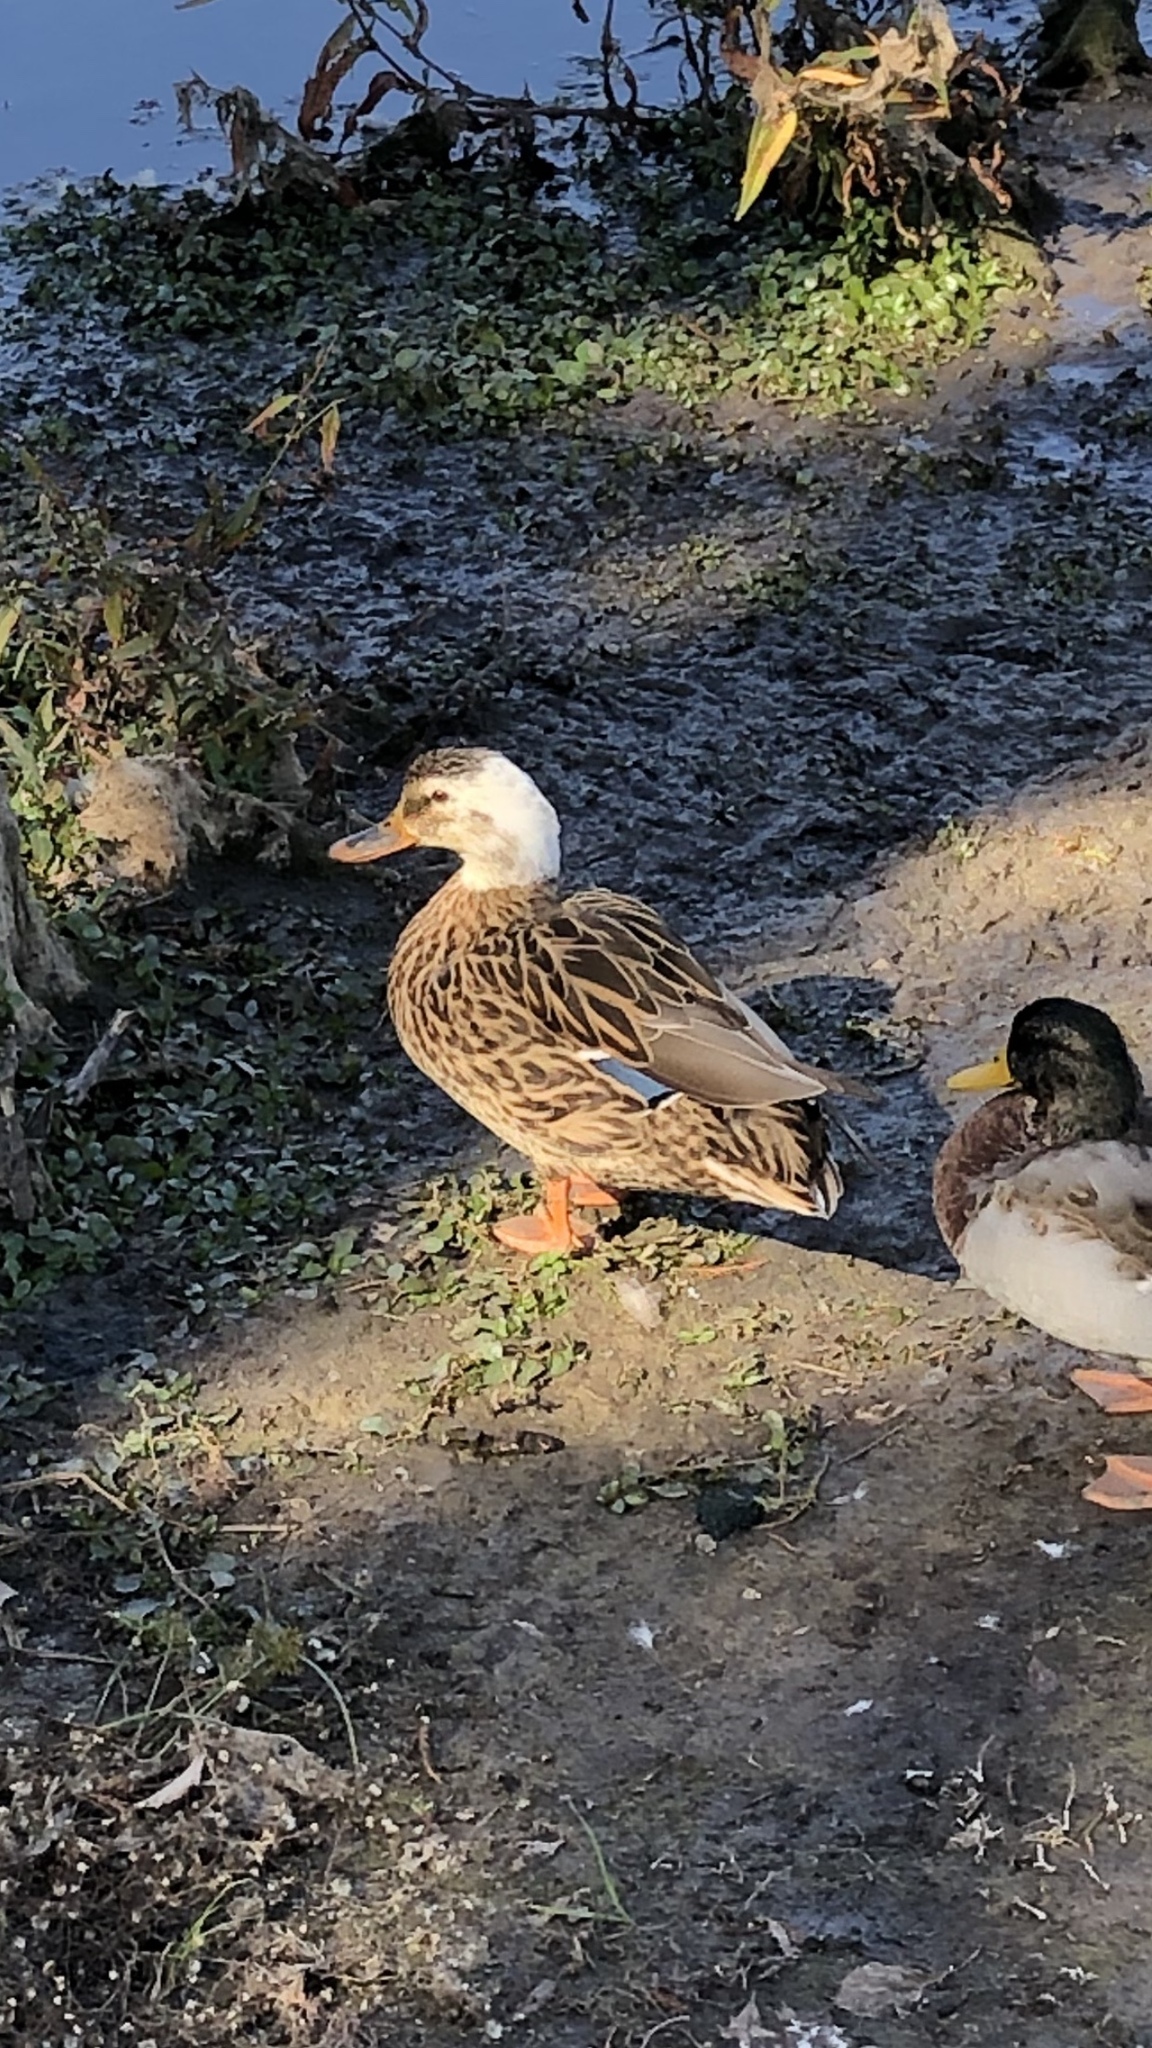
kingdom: Animalia
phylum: Chordata
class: Aves
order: Anseriformes
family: Anatidae
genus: Anas
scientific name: Anas platyrhynchos
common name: Mallard
